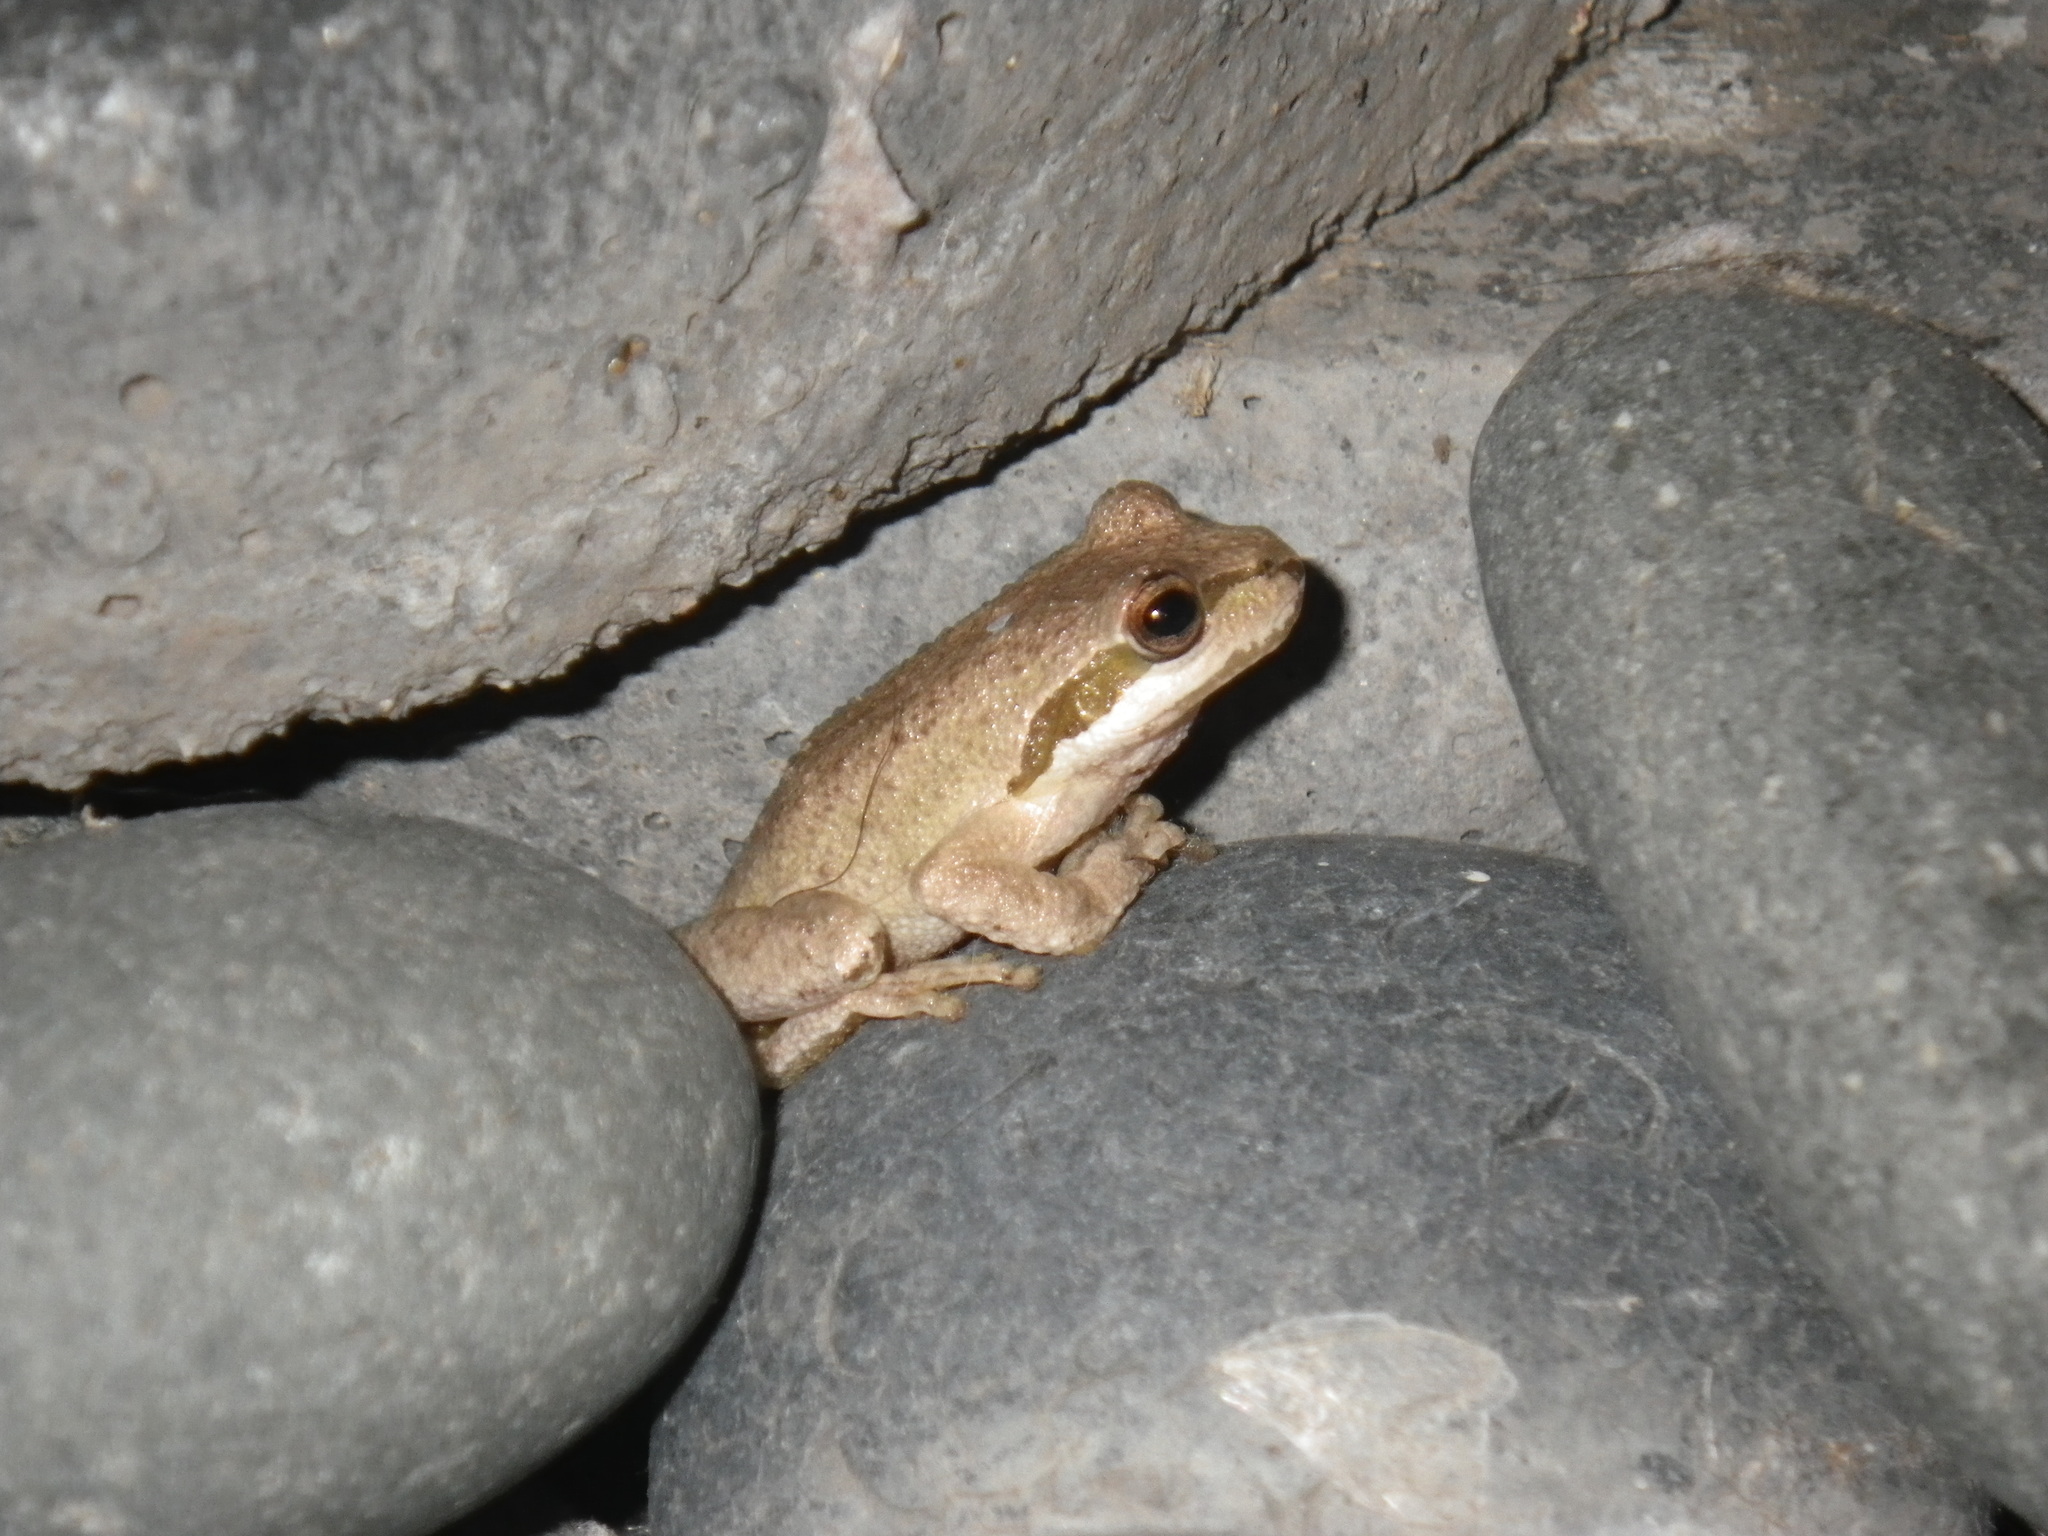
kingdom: Animalia
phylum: Chordata
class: Amphibia
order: Anura
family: Hylidae
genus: Pseudacris
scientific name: Pseudacris regilla
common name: Pacific chorus frog
